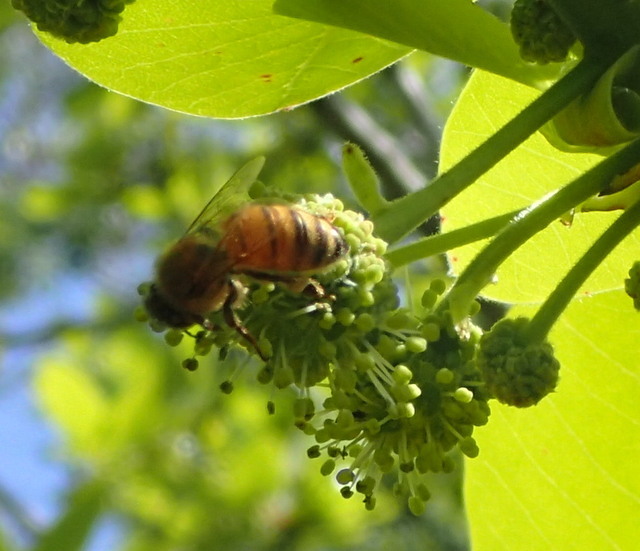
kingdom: Animalia
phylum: Arthropoda
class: Insecta
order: Hymenoptera
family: Apidae
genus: Apis
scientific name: Apis mellifera
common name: Honey bee
